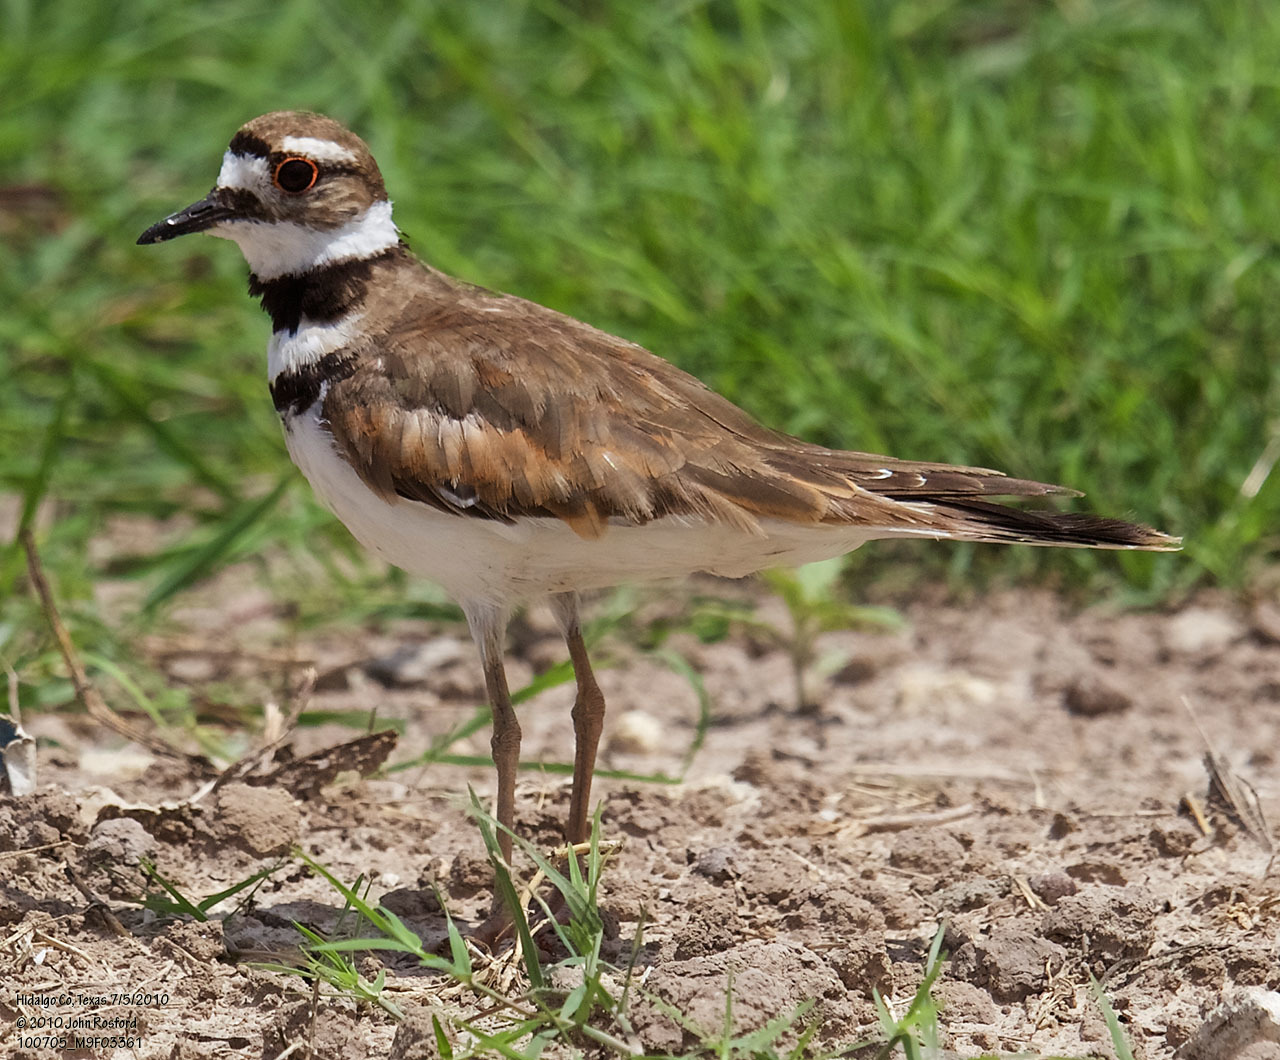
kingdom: Animalia
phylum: Chordata
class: Aves
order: Charadriiformes
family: Charadriidae
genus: Charadrius
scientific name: Charadrius vociferus
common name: Killdeer
